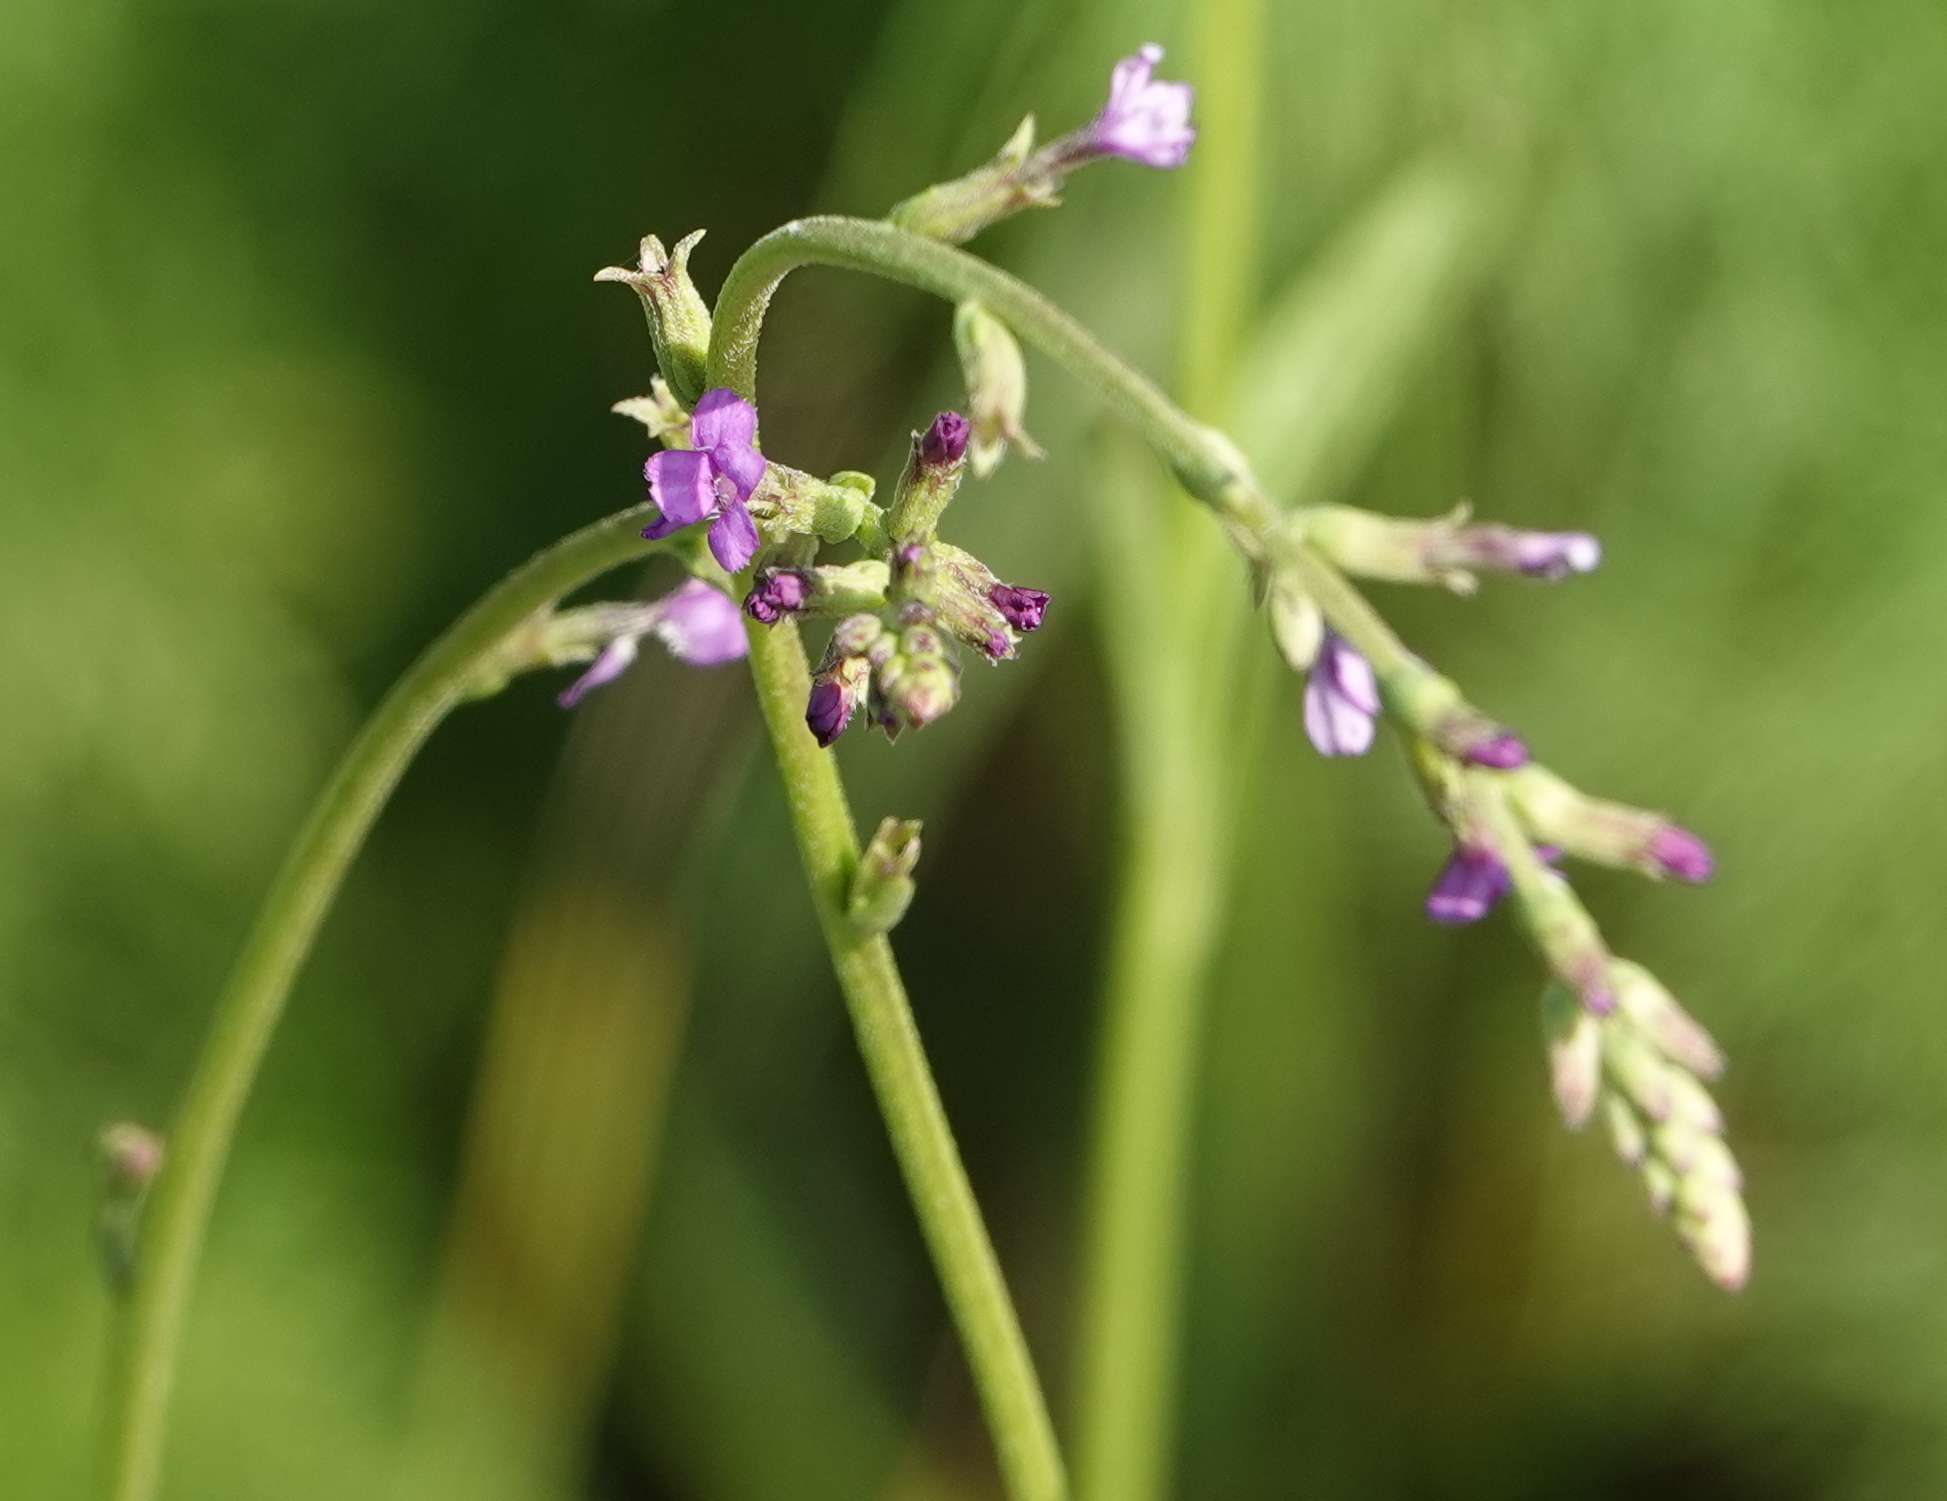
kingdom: Plantae
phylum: Tracheophyta
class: Magnoliopsida
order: Lamiales
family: Orobanchaceae
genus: Buchnera
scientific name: Buchnera floridana
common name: Florida bluehearts
